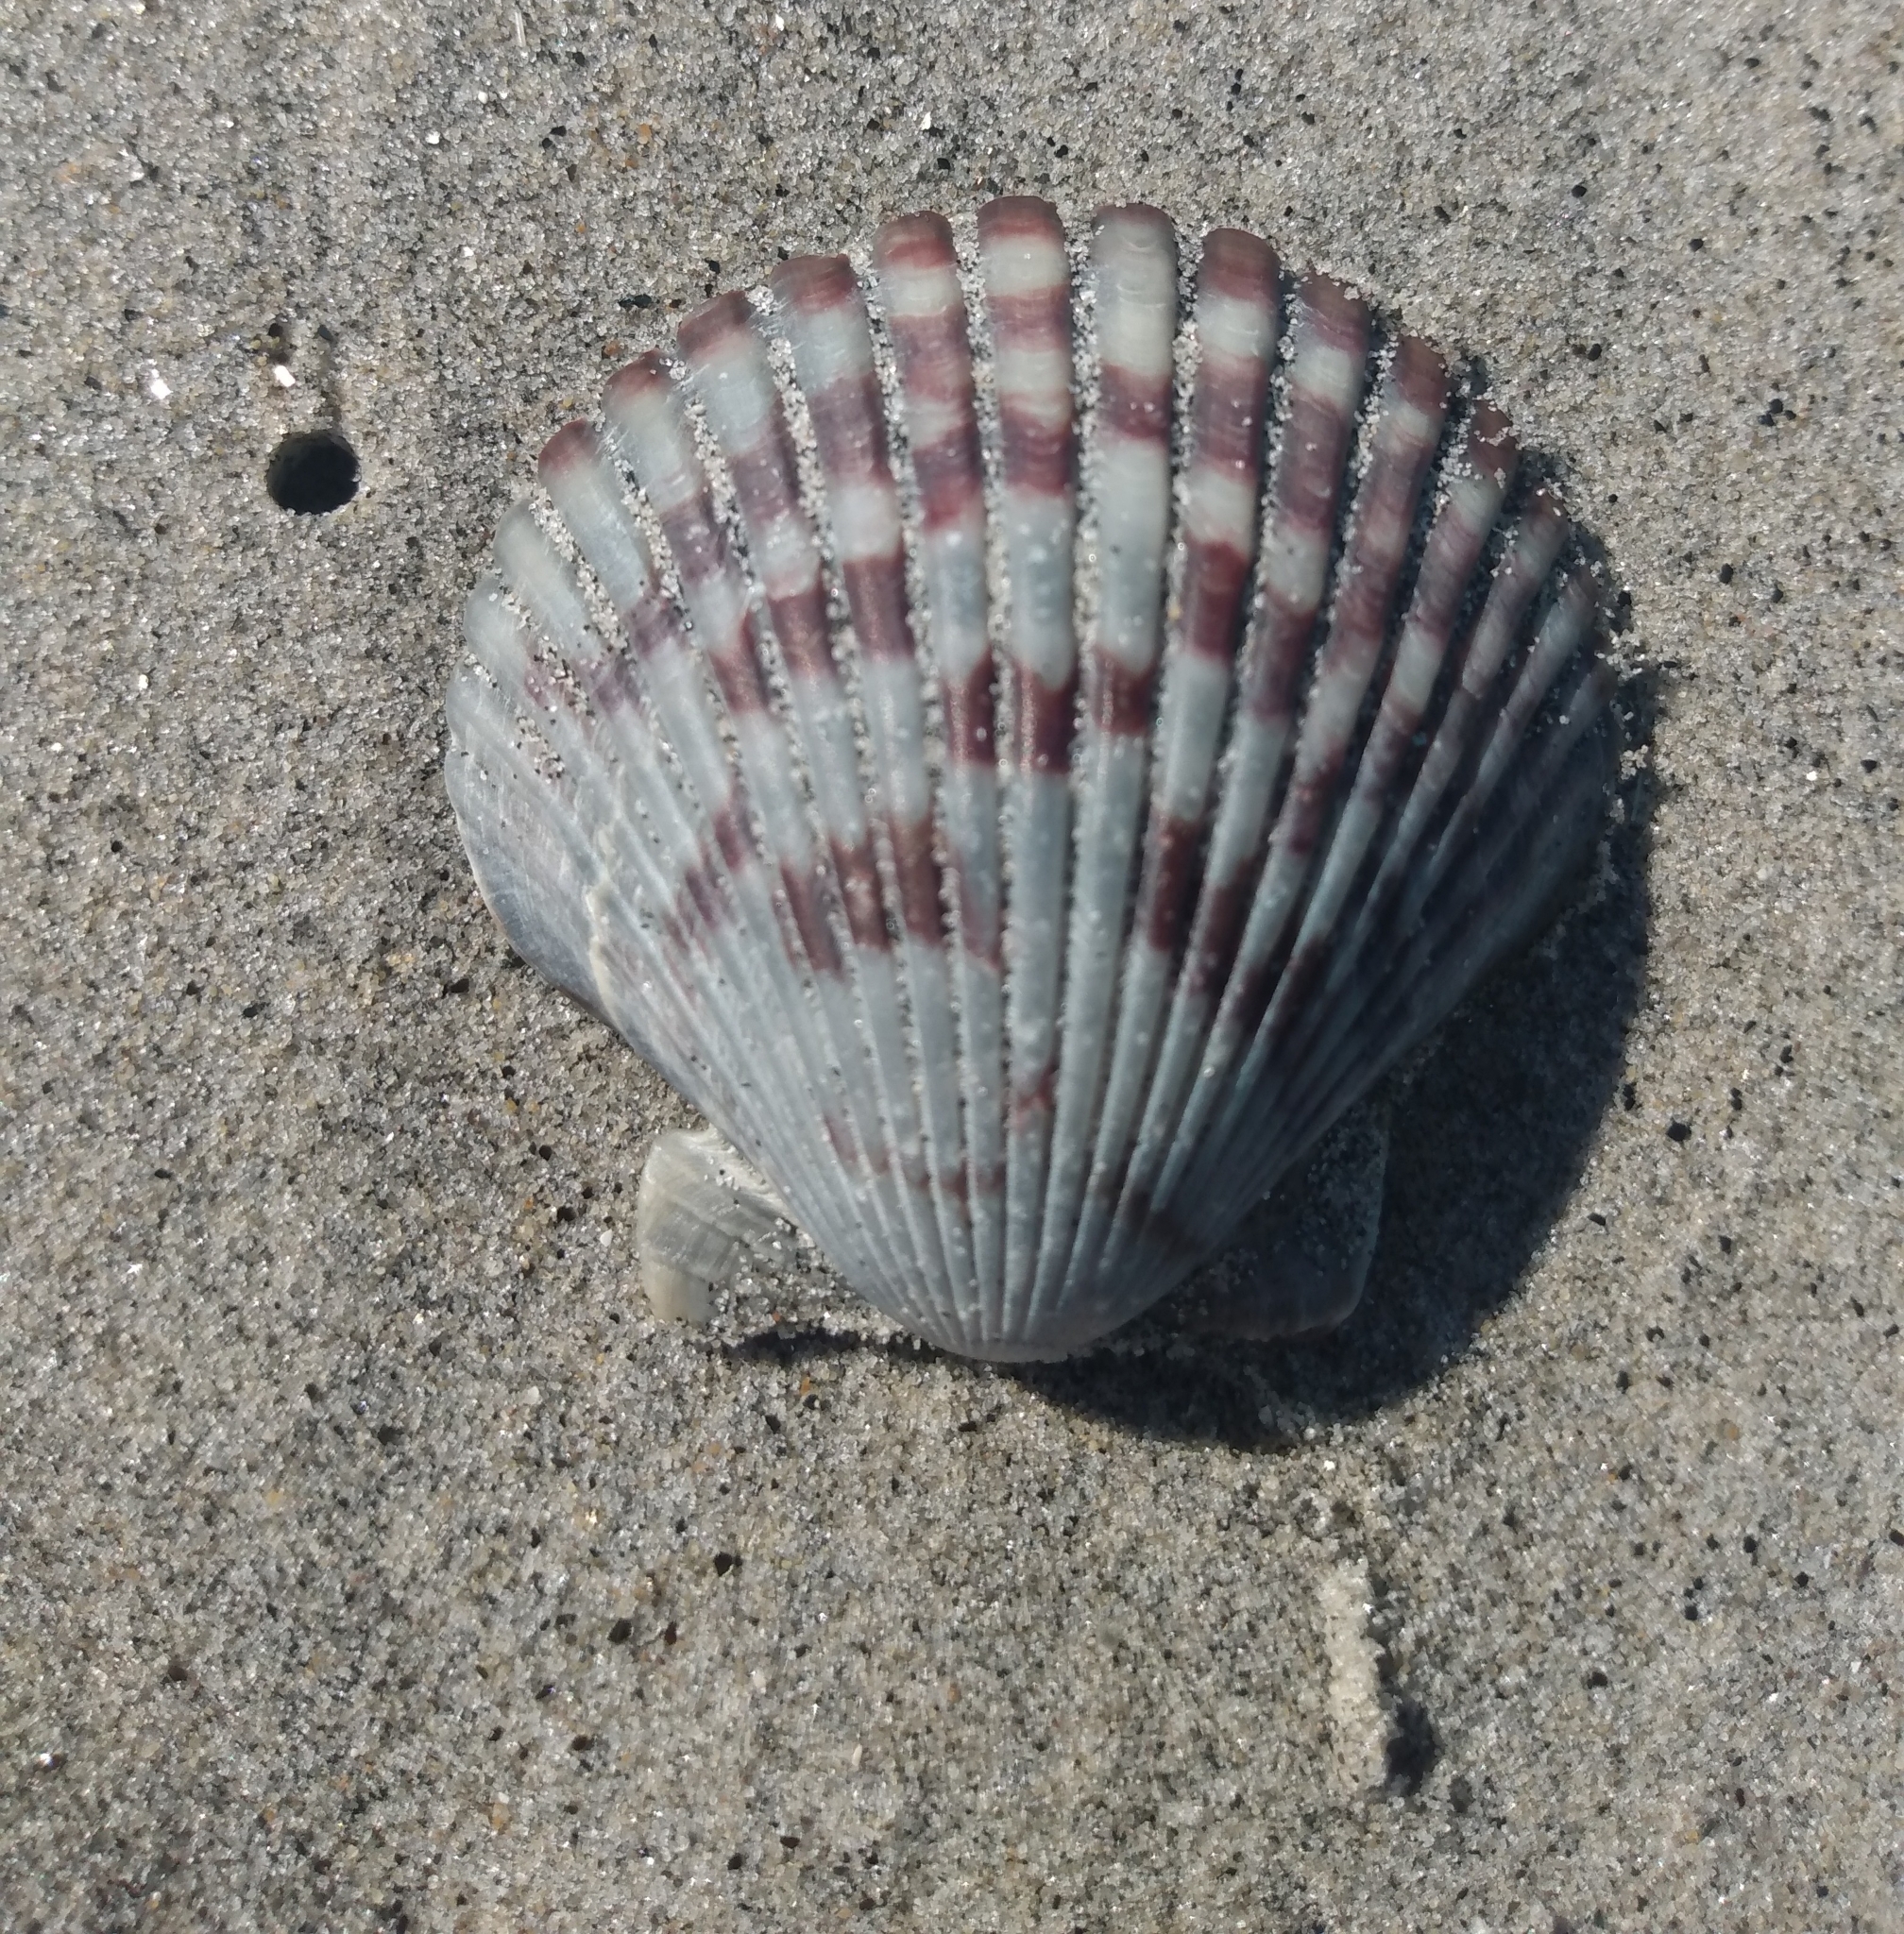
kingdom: Animalia
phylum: Mollusca
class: Bivalvia
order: Pectinida
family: Pectinidae
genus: Argopecten
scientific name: Argopecten ventricosus
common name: Catarina scallop
